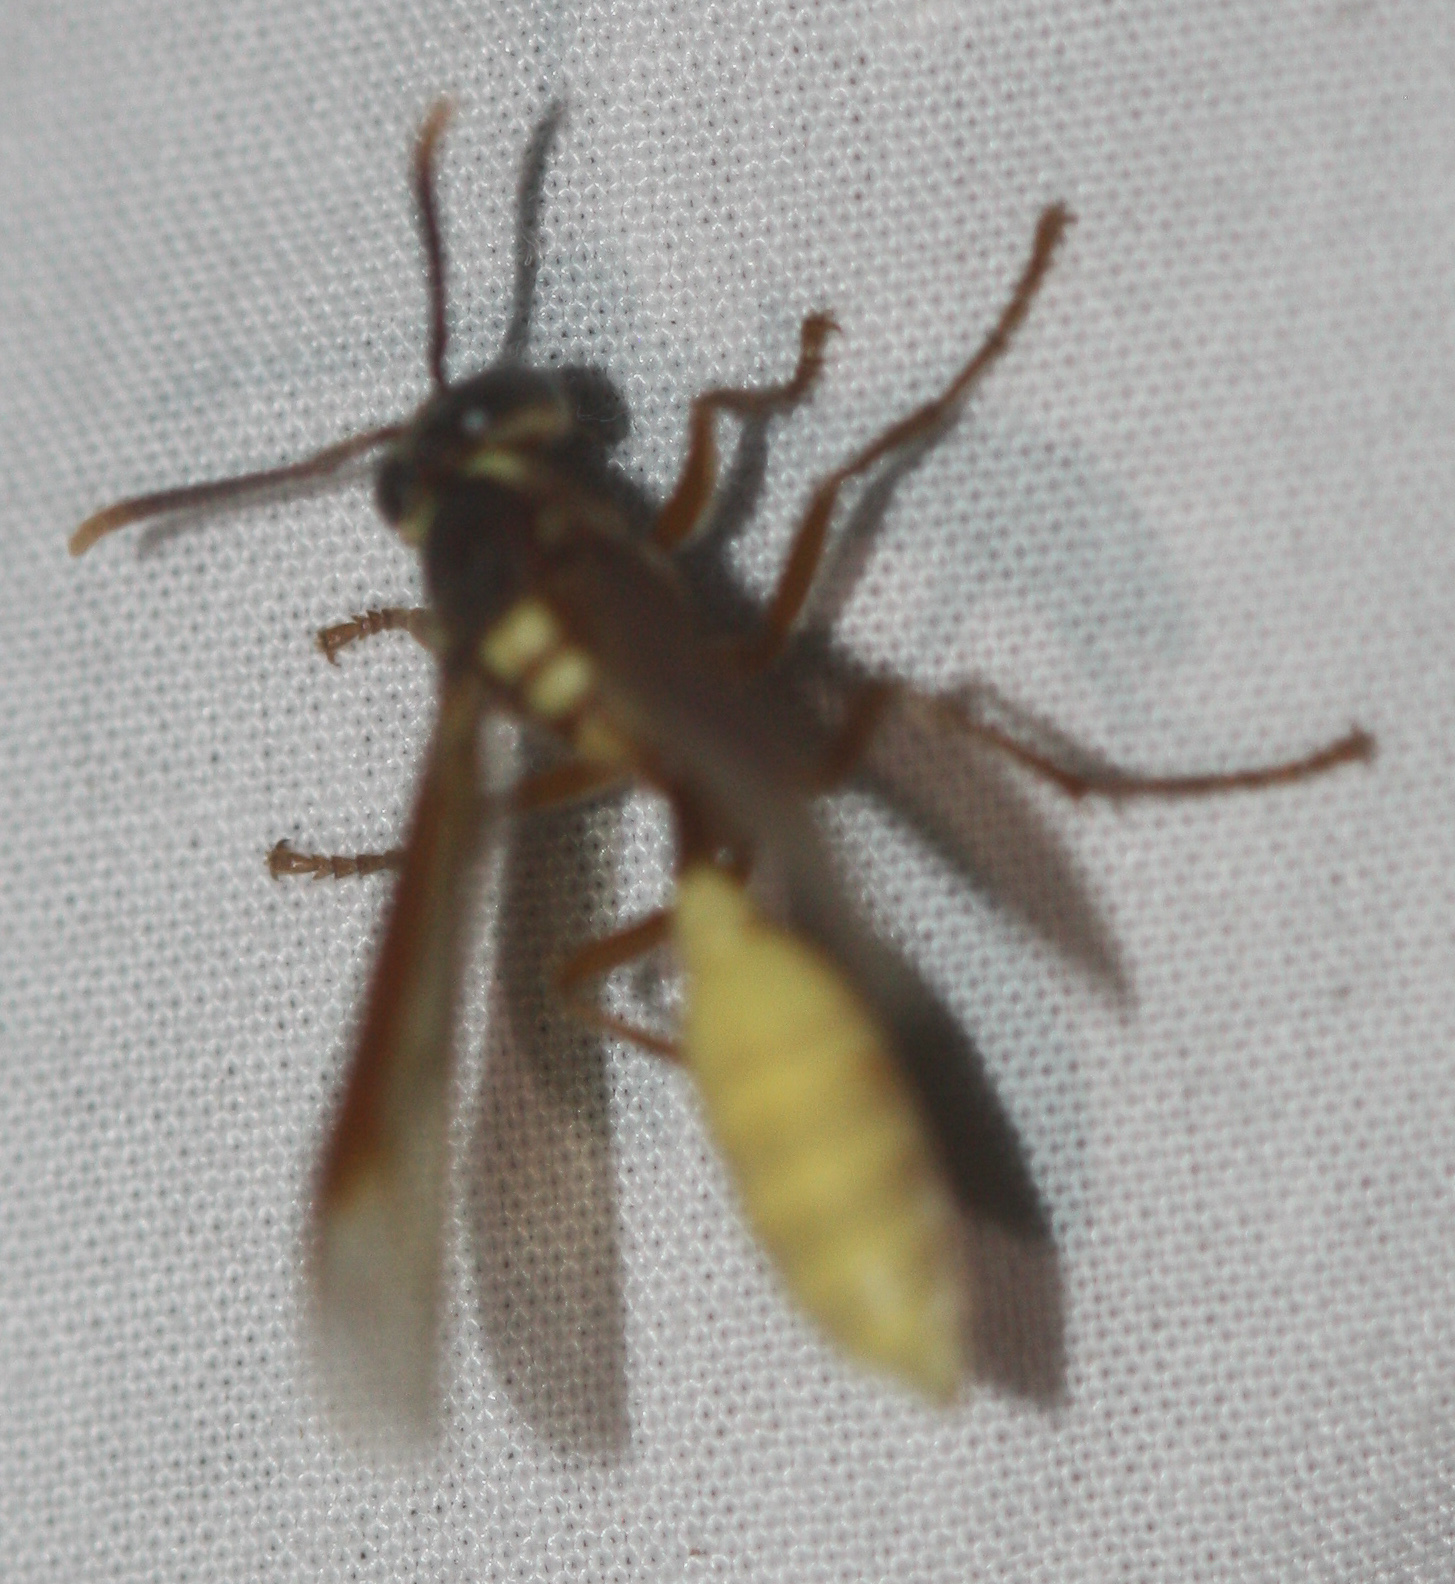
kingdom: Animalia
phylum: Arthropoda
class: Insecta
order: Hymenoptera
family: Vespidae
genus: Apoica
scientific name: Apoica pallens
